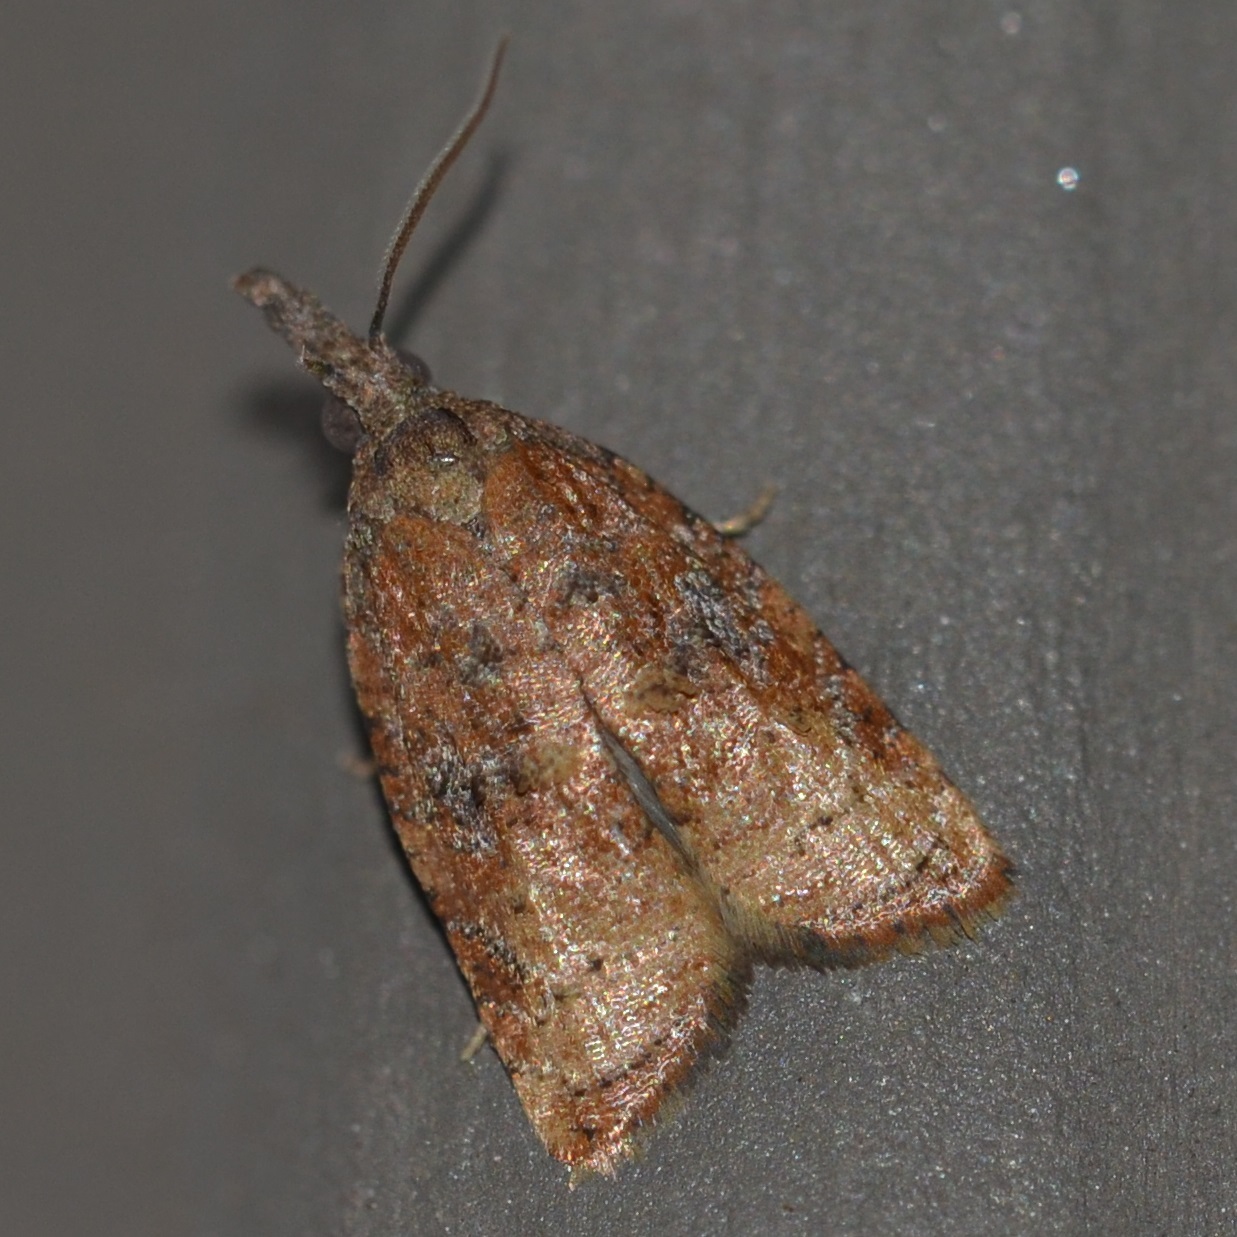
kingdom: Animalia
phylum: Arthropoda
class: Insecta
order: Lepidoptera
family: Tortricidae
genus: Platynota
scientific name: Platynota stultana
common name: Omnivorous leafroller
